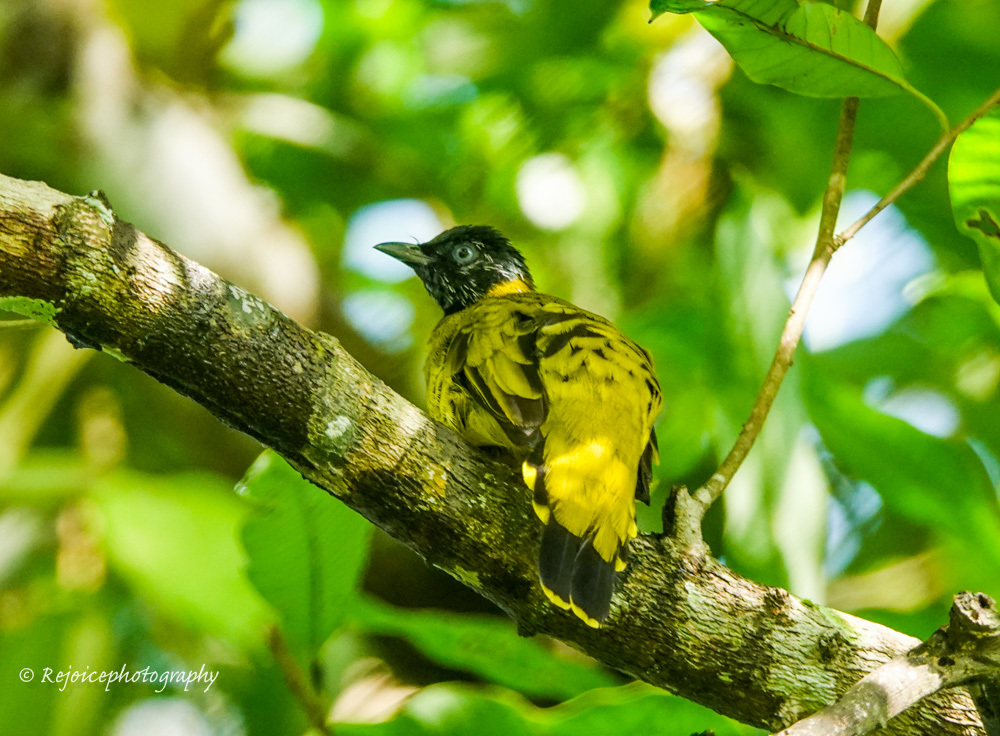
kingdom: Animalia
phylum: Chordata
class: Aves
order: Passeriformes
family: Pycnonotidae
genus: Microtarsus
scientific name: Microtarsus
